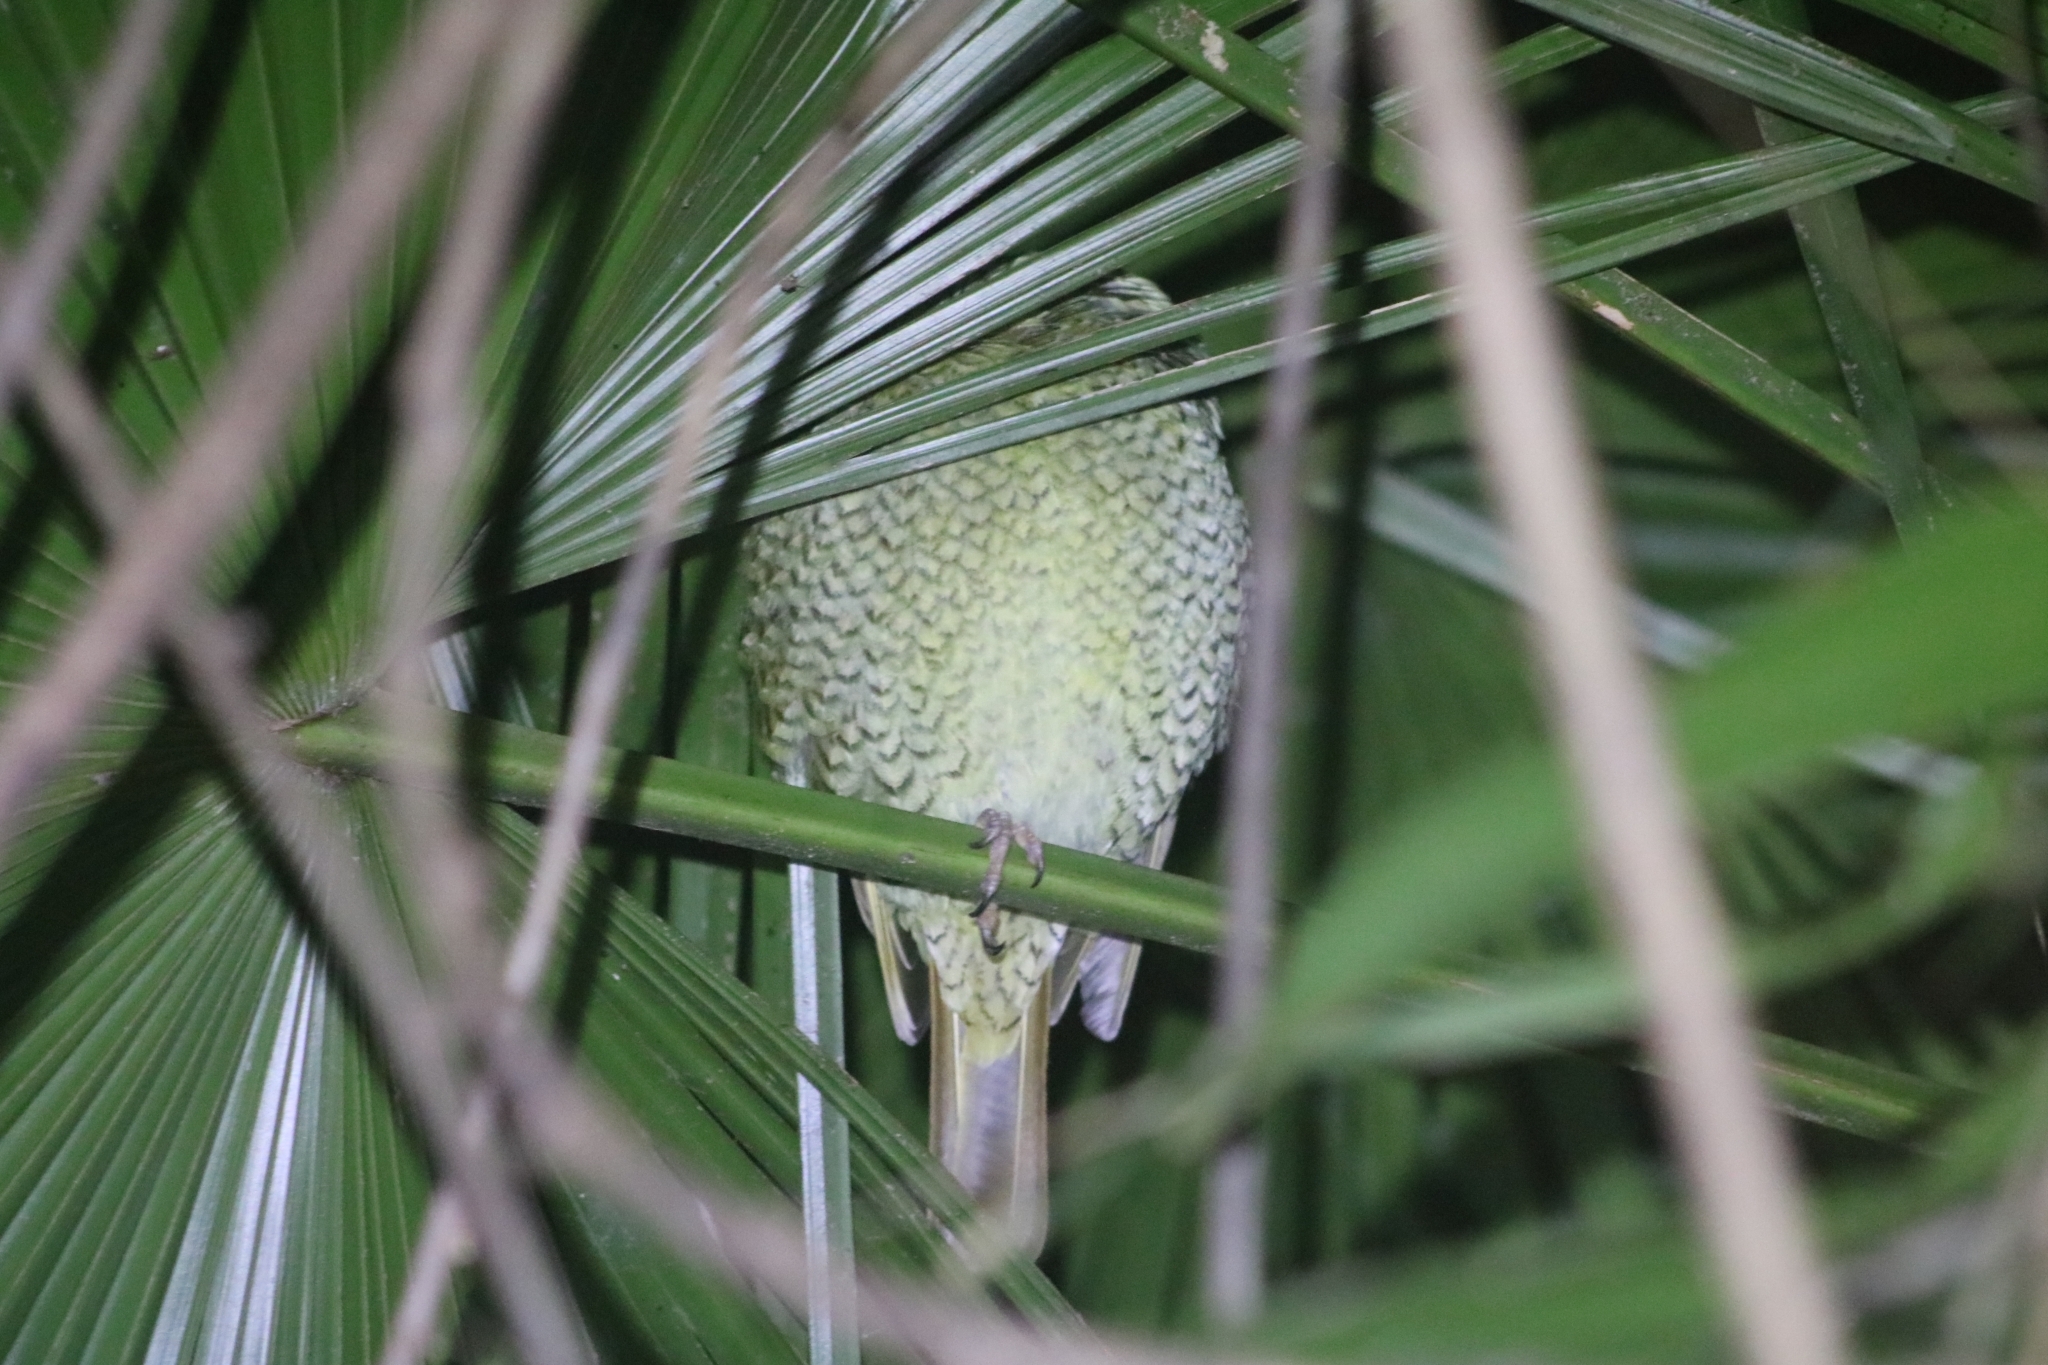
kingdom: Animalia
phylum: Chordata
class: Aves
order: Passeriformes
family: Ptilonorhynchidae
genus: Ptilonorhynchus
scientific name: Ptilonorhynchus violaceus
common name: Satin bowerbird
